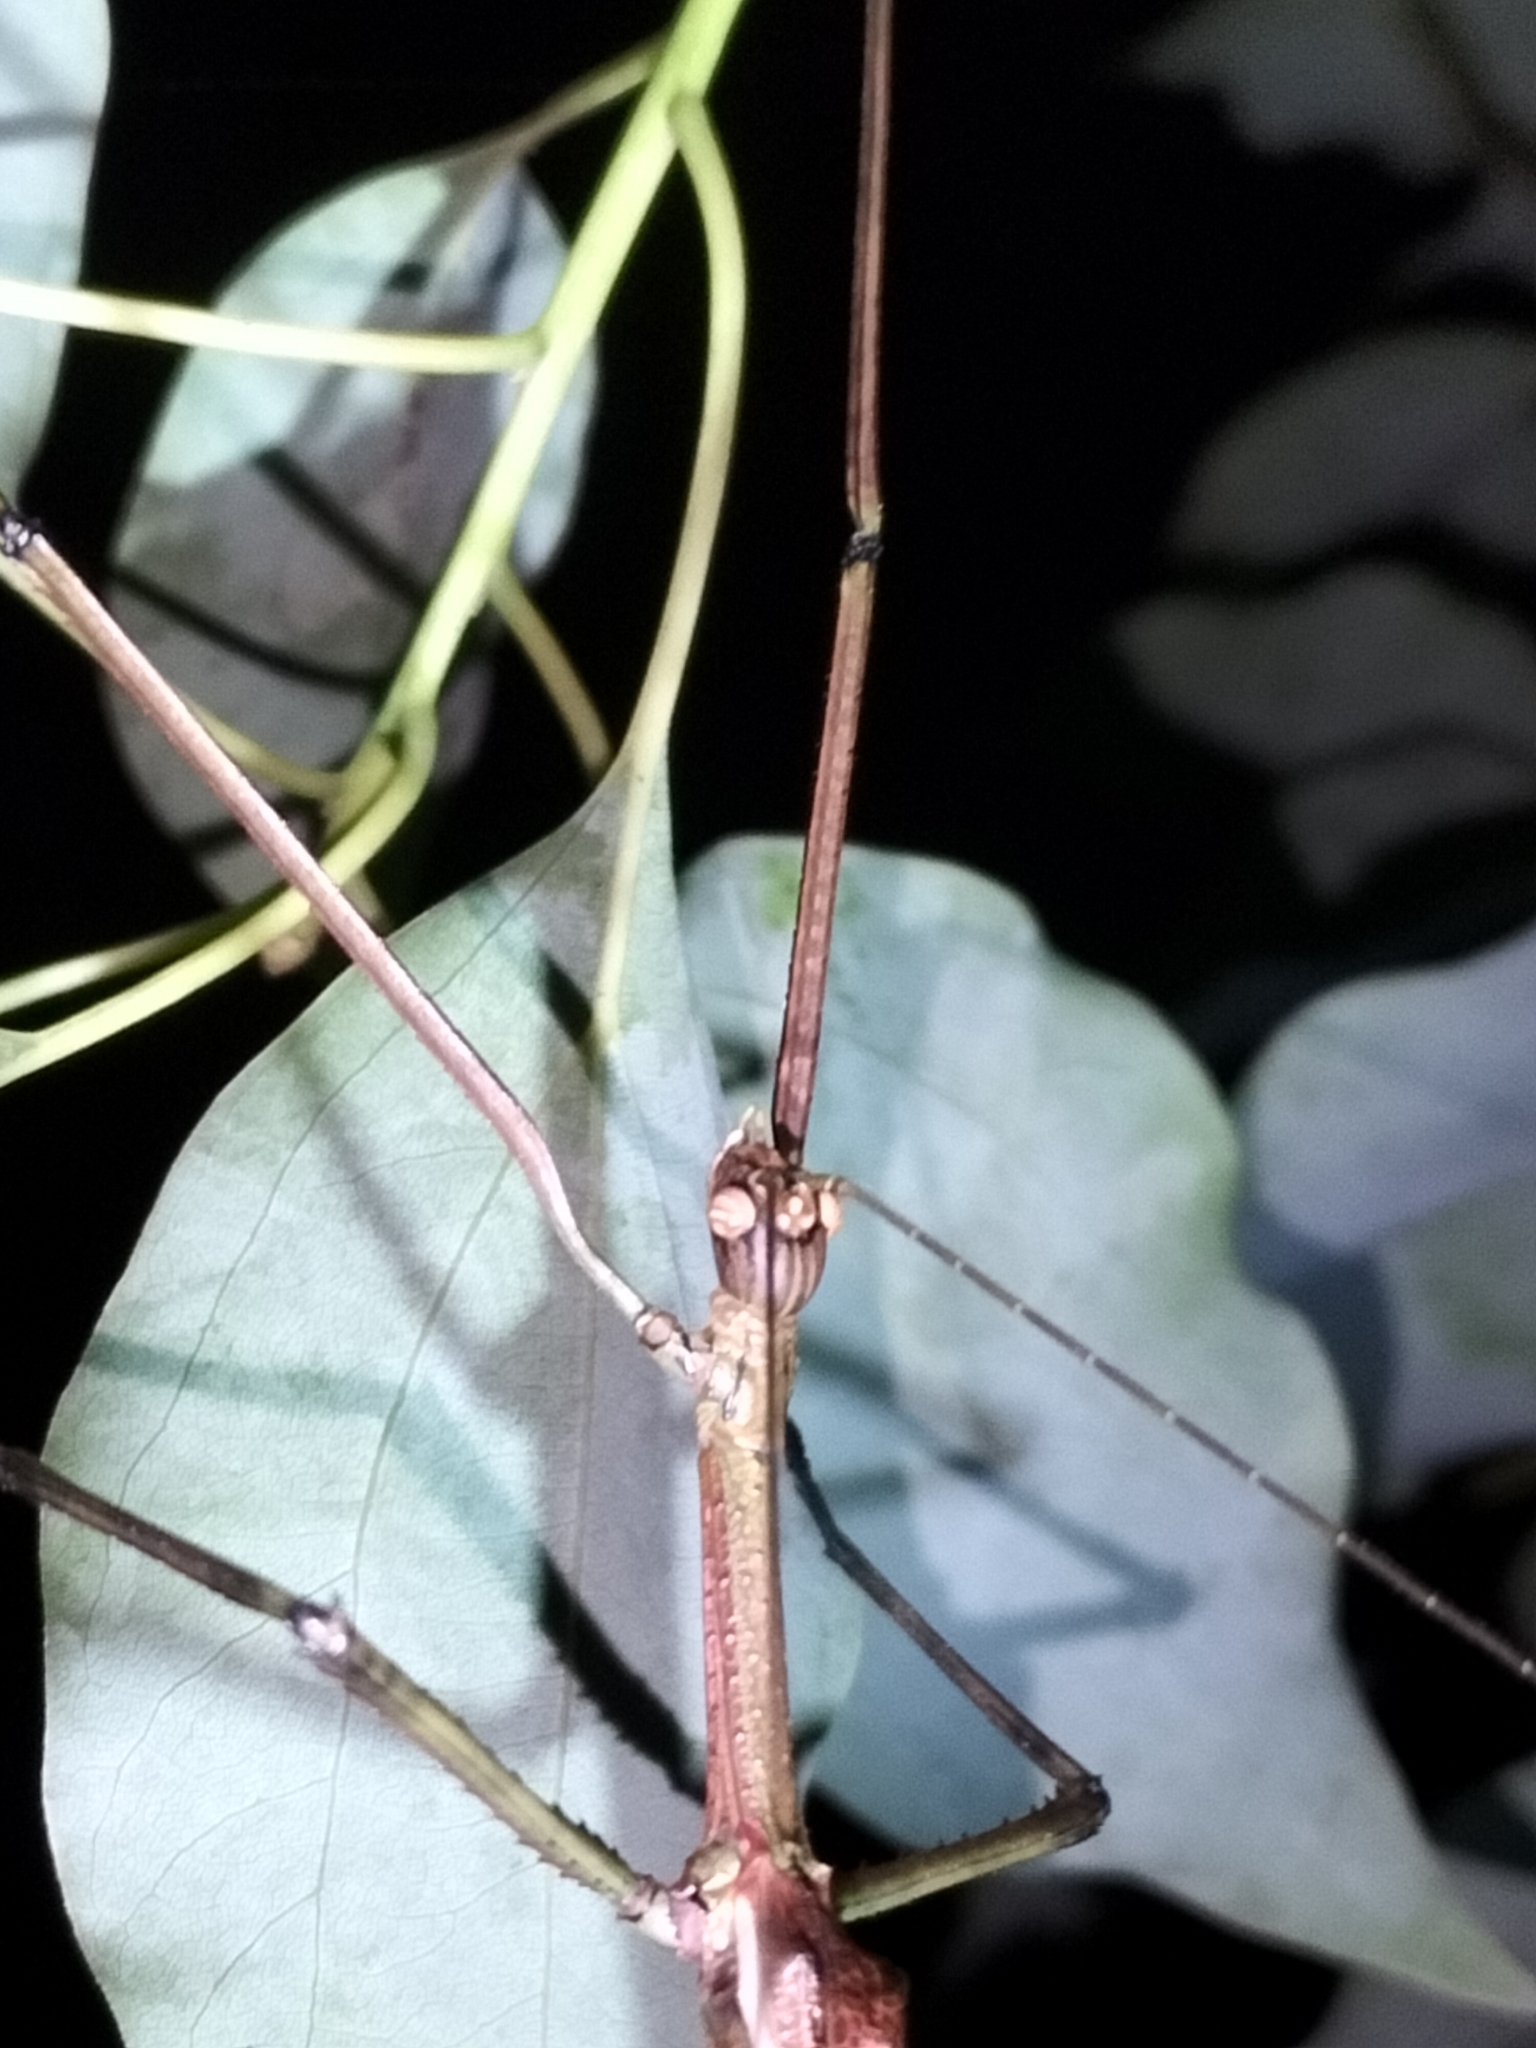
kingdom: Animalia
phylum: Arthropoda
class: Insecta
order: Phasmida
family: Phasmatidae
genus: Anchiale
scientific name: Anchiale briareus
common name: Strong stick insect
